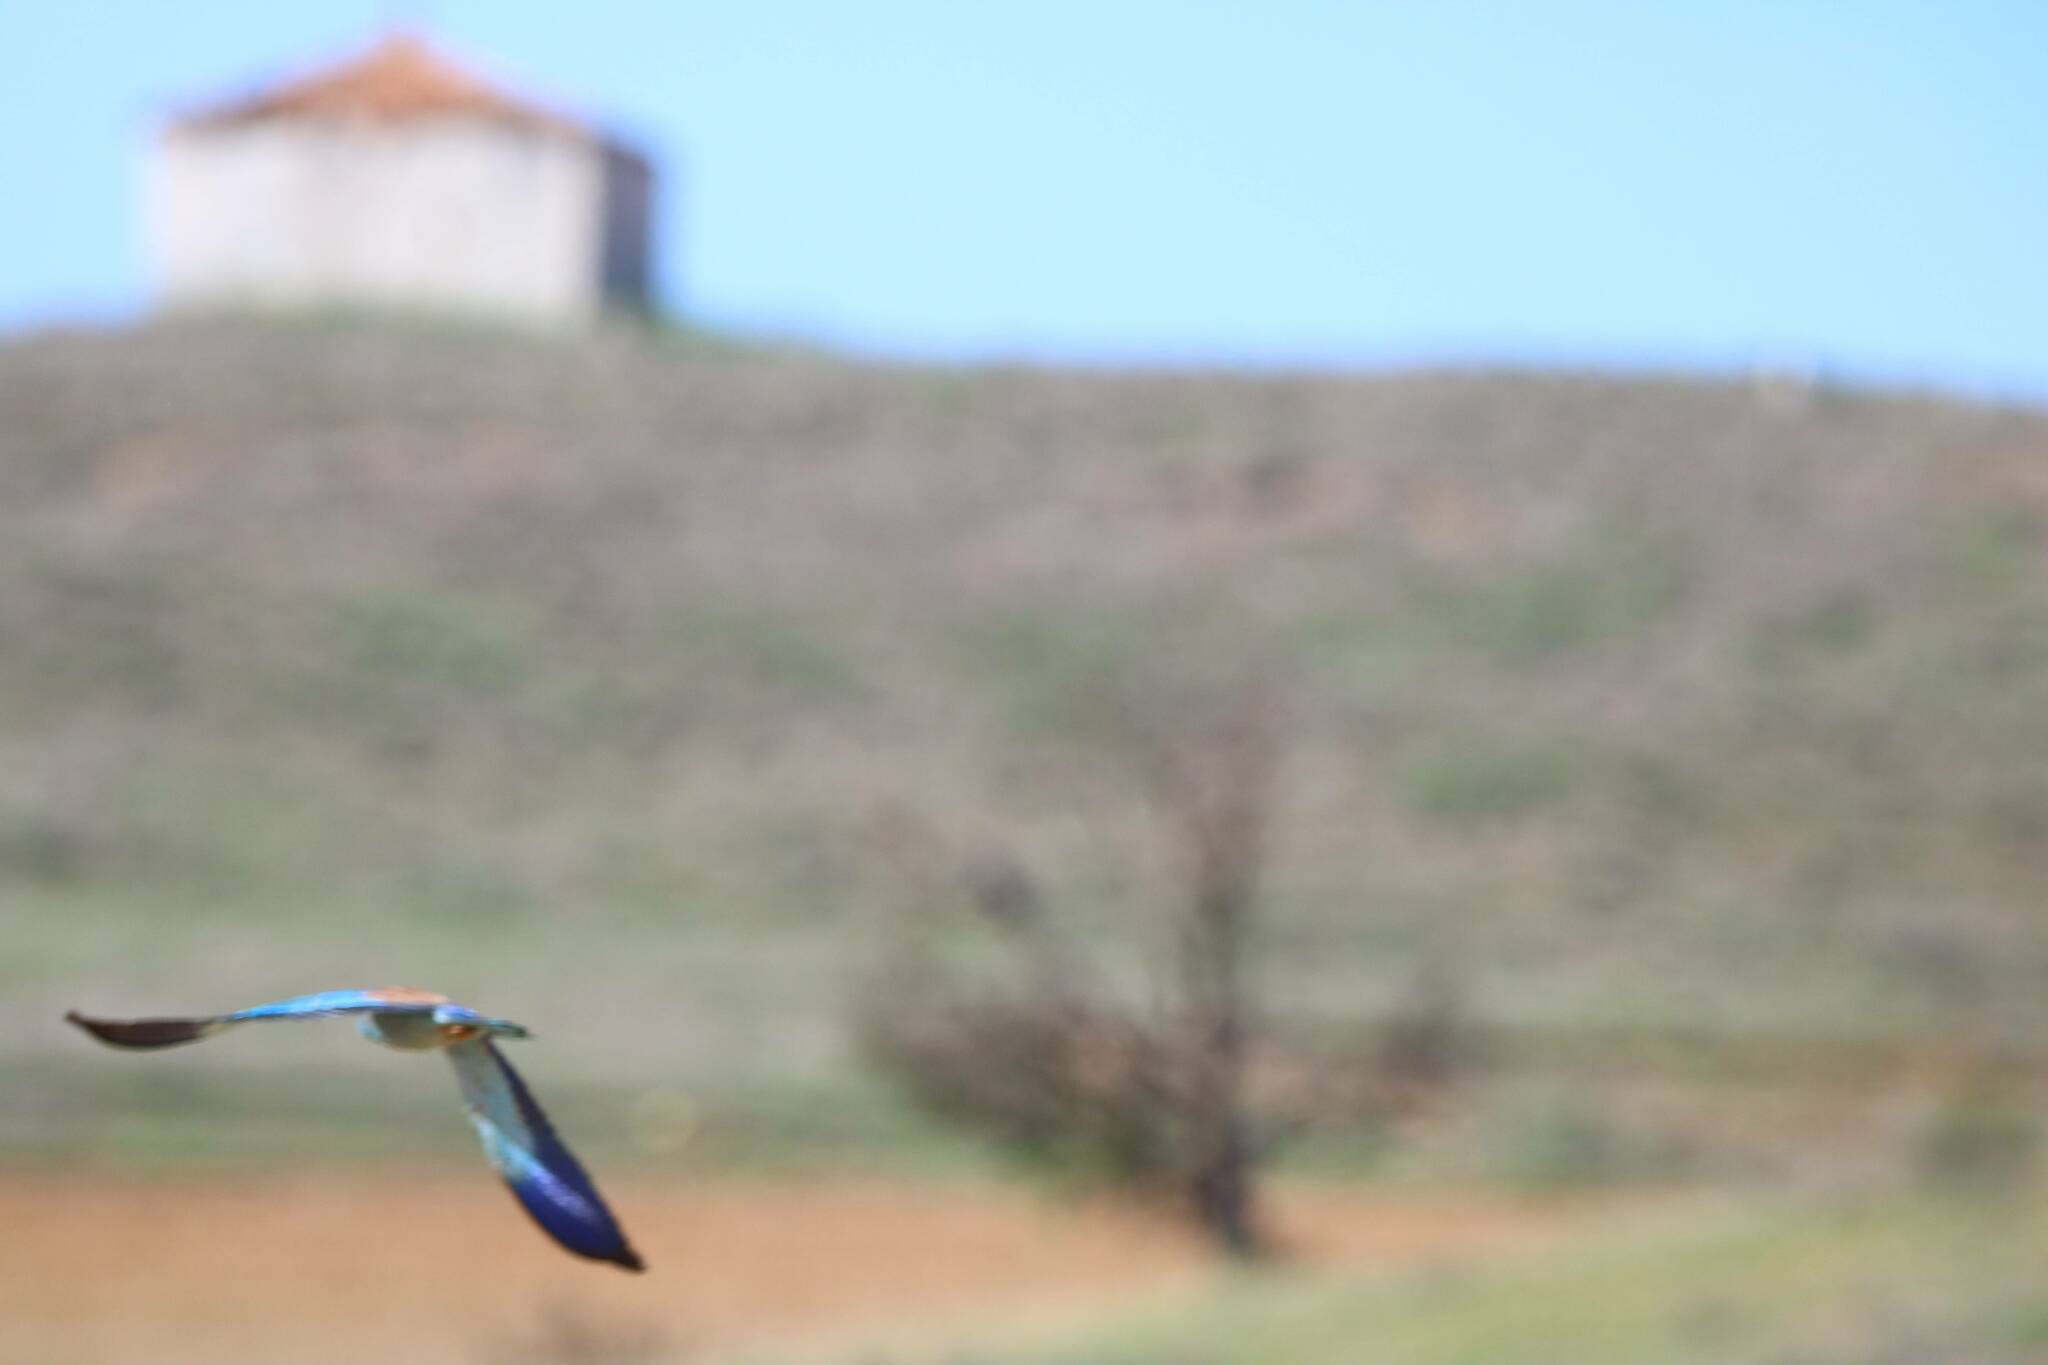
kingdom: Animalia
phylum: Chordata
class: Aves
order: Coraciiformes
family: Coraciidae
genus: Coracias
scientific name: Coracias garrulus
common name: European roller
